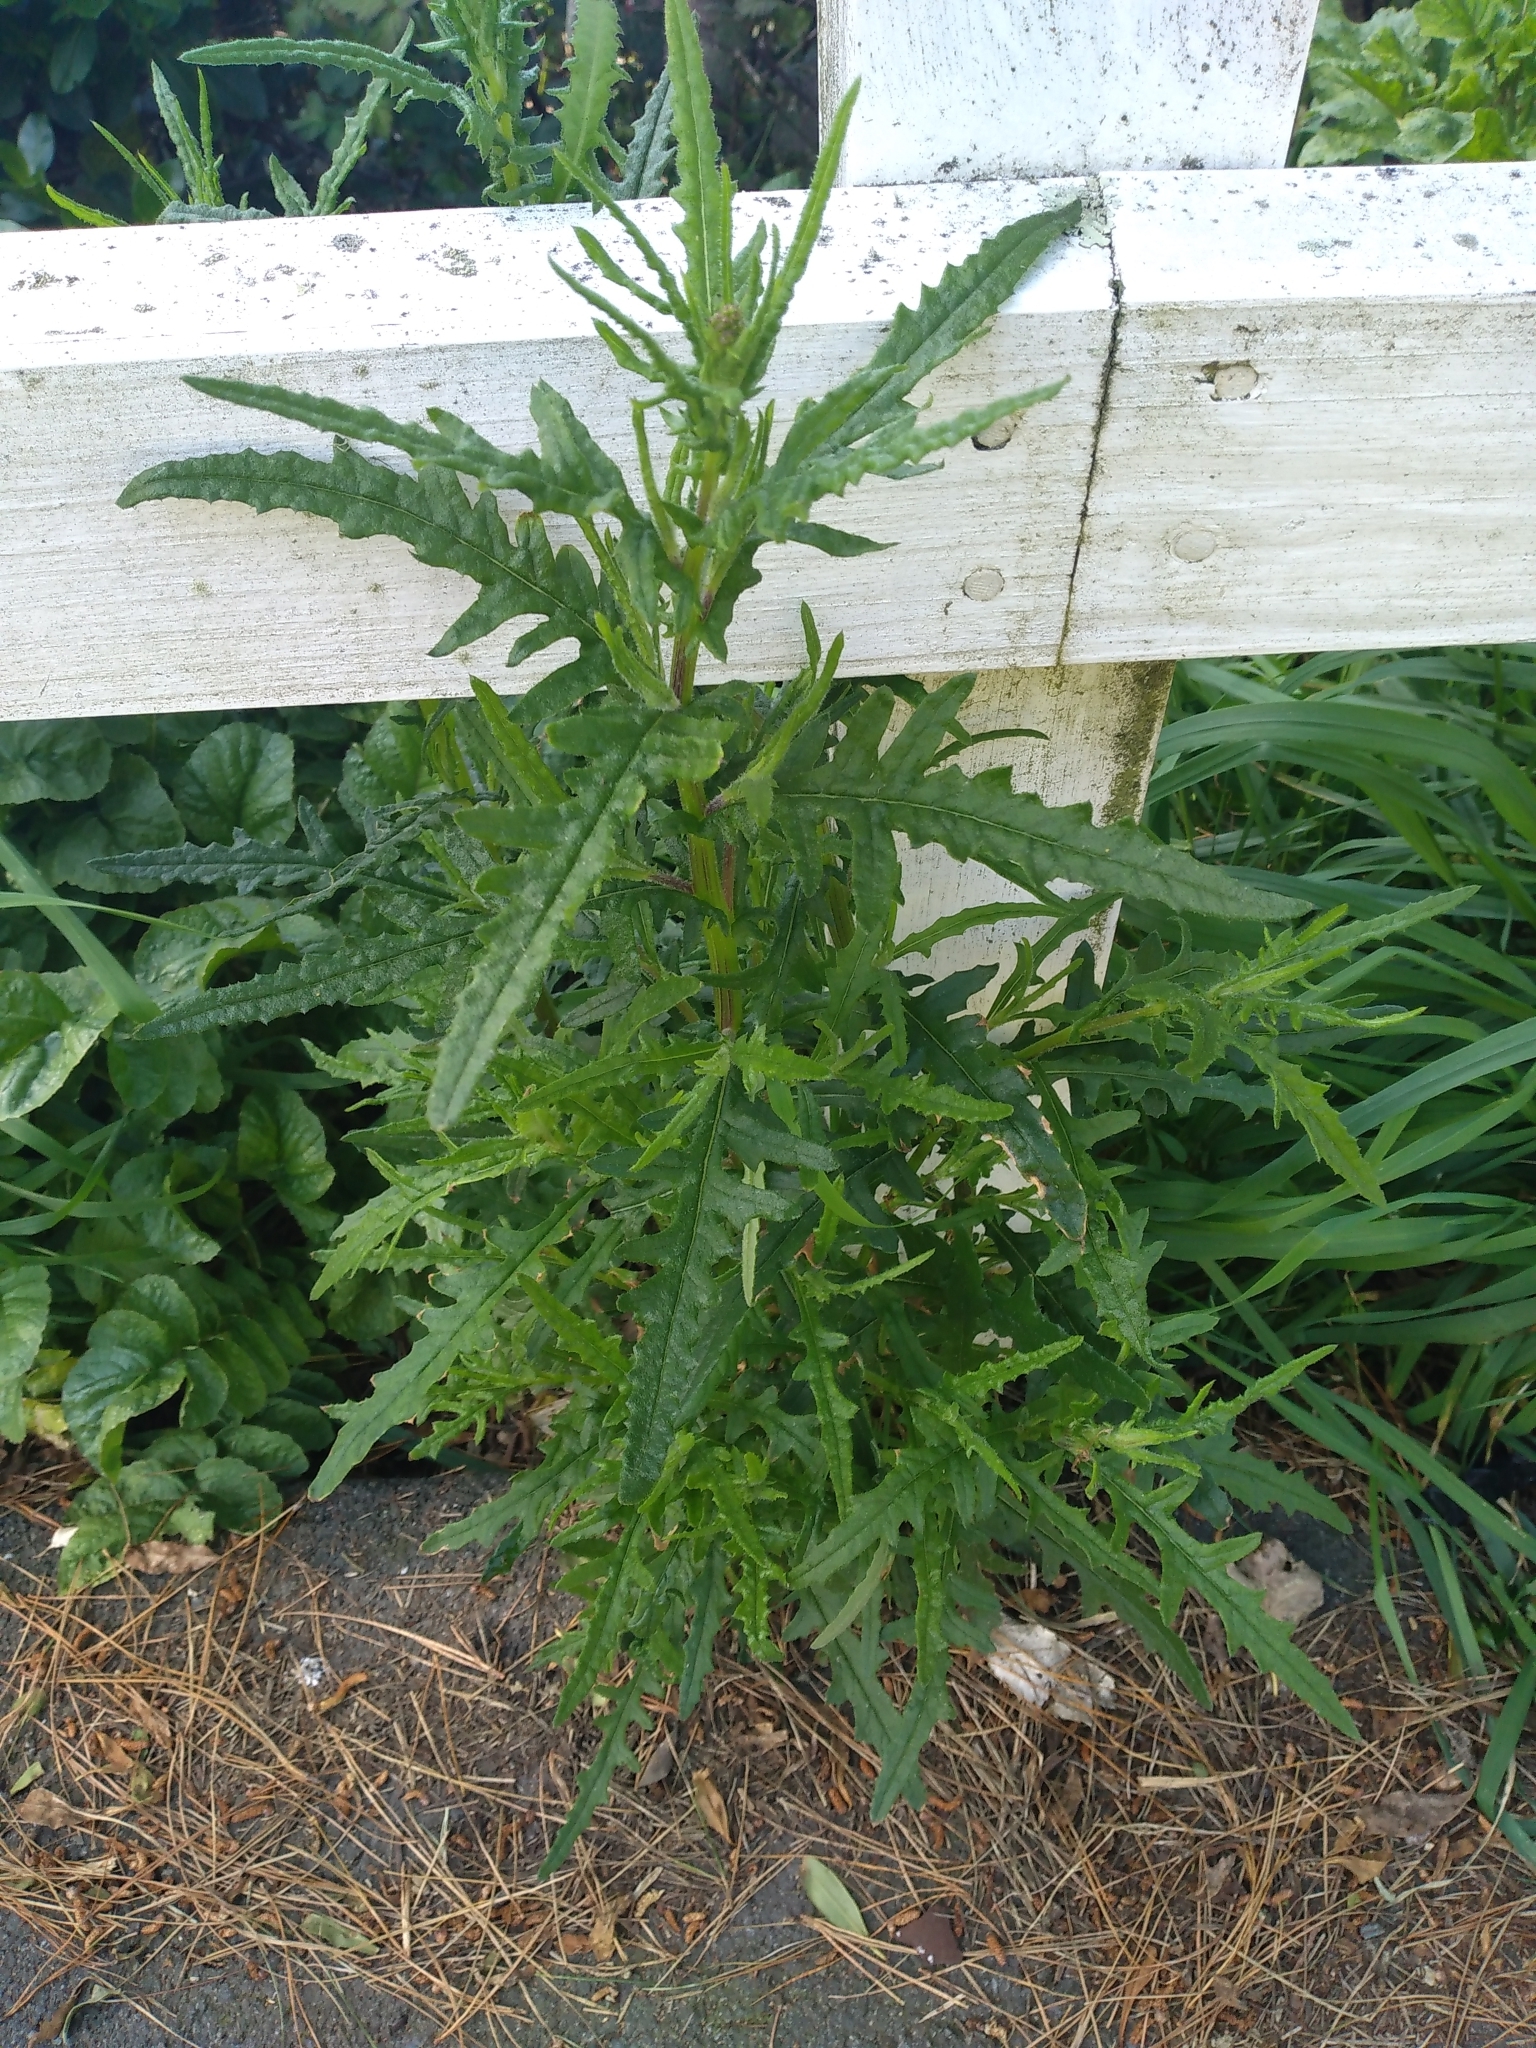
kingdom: Plantae
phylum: Tracheophyta
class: Magnoliopsida
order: Asterales
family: Asteraceae
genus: Senecio
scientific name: Senecio hispidulus
